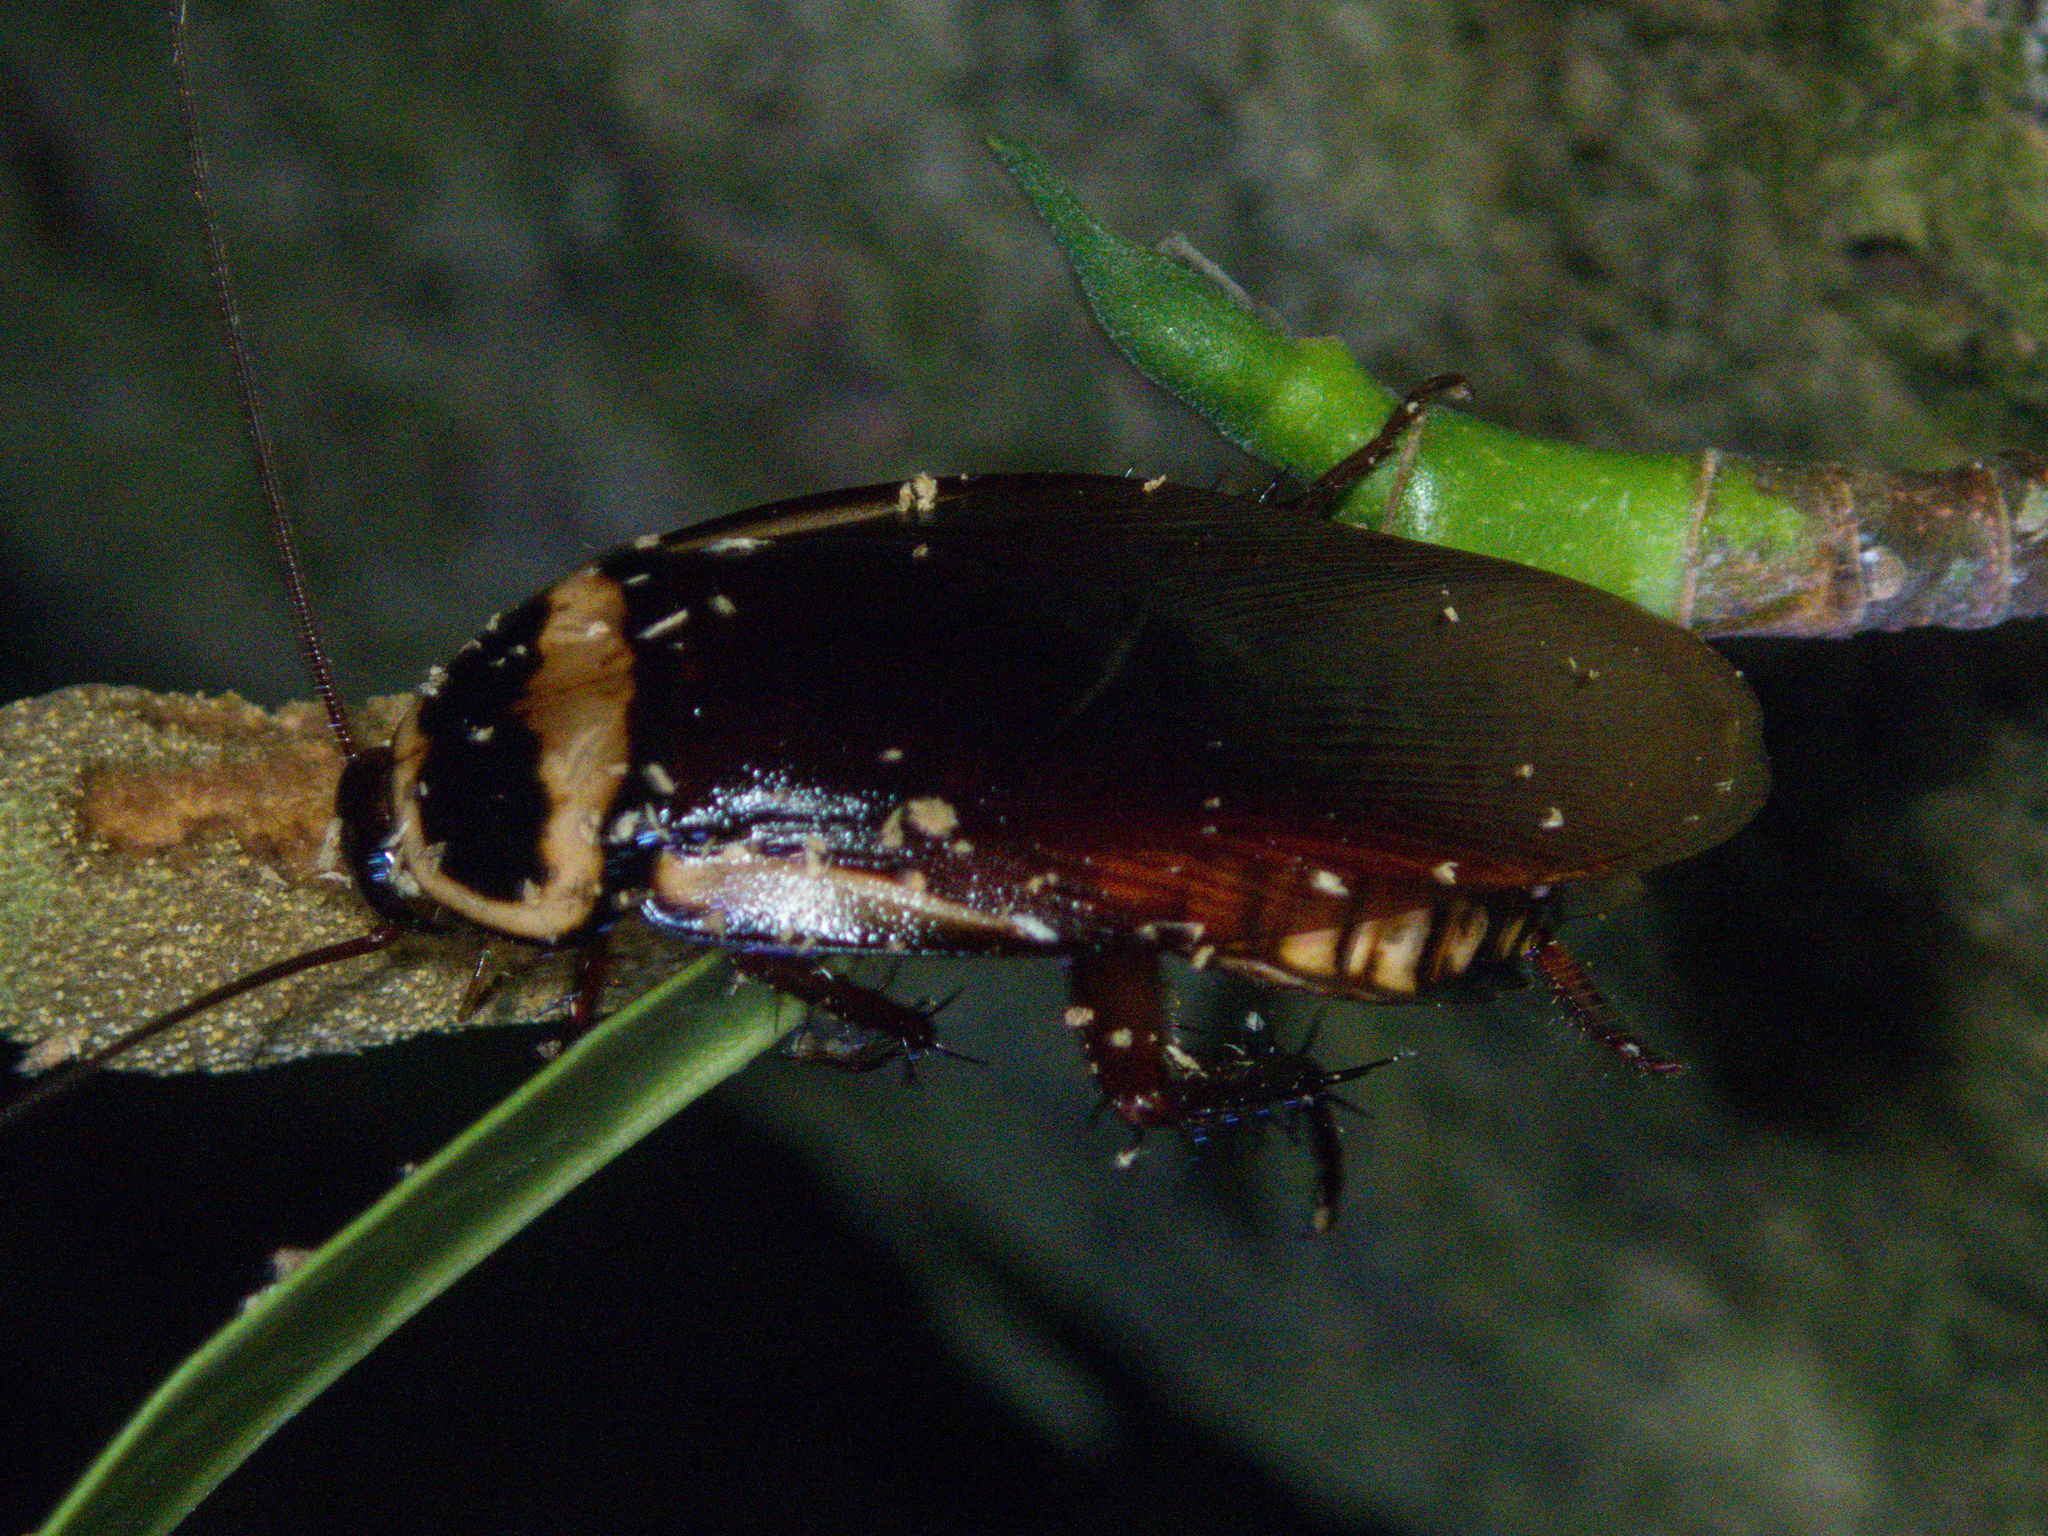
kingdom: Animalia
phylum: Arthropoda
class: Insecta
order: Blattodea
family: Blattidae
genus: Periplaneta
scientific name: Periplaneta australasiae
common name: Australian cockroach
